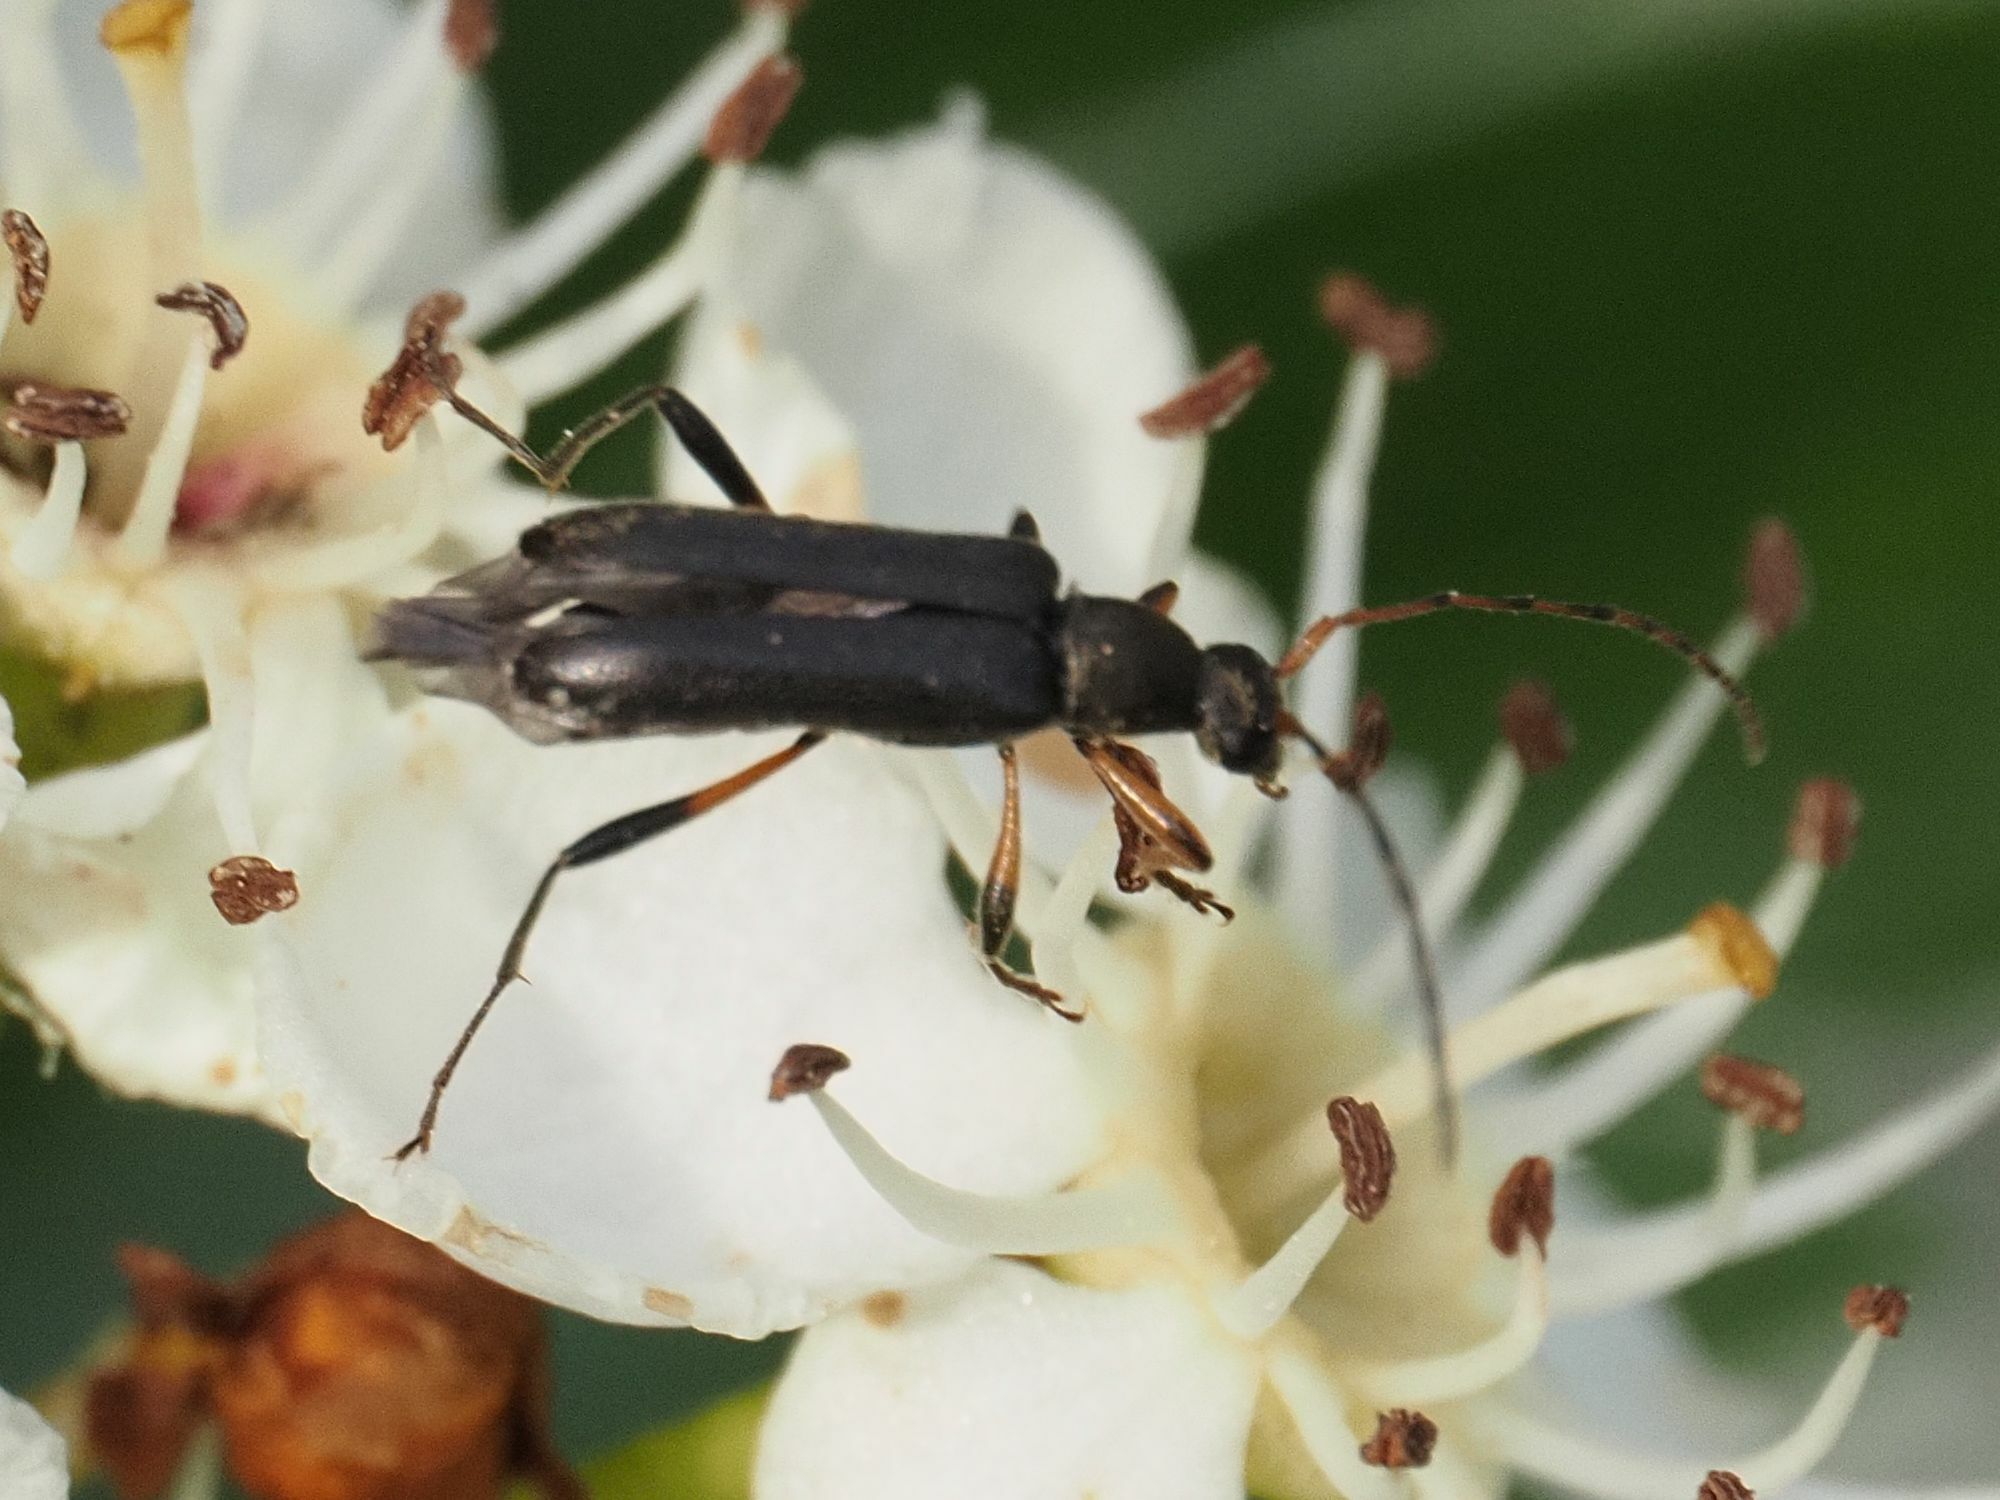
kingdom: Animalia
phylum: Arthropoda
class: Insecta
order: Coleoptera
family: Cerambycidae
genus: Grammoptera
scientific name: Grammoptera ruficornis
